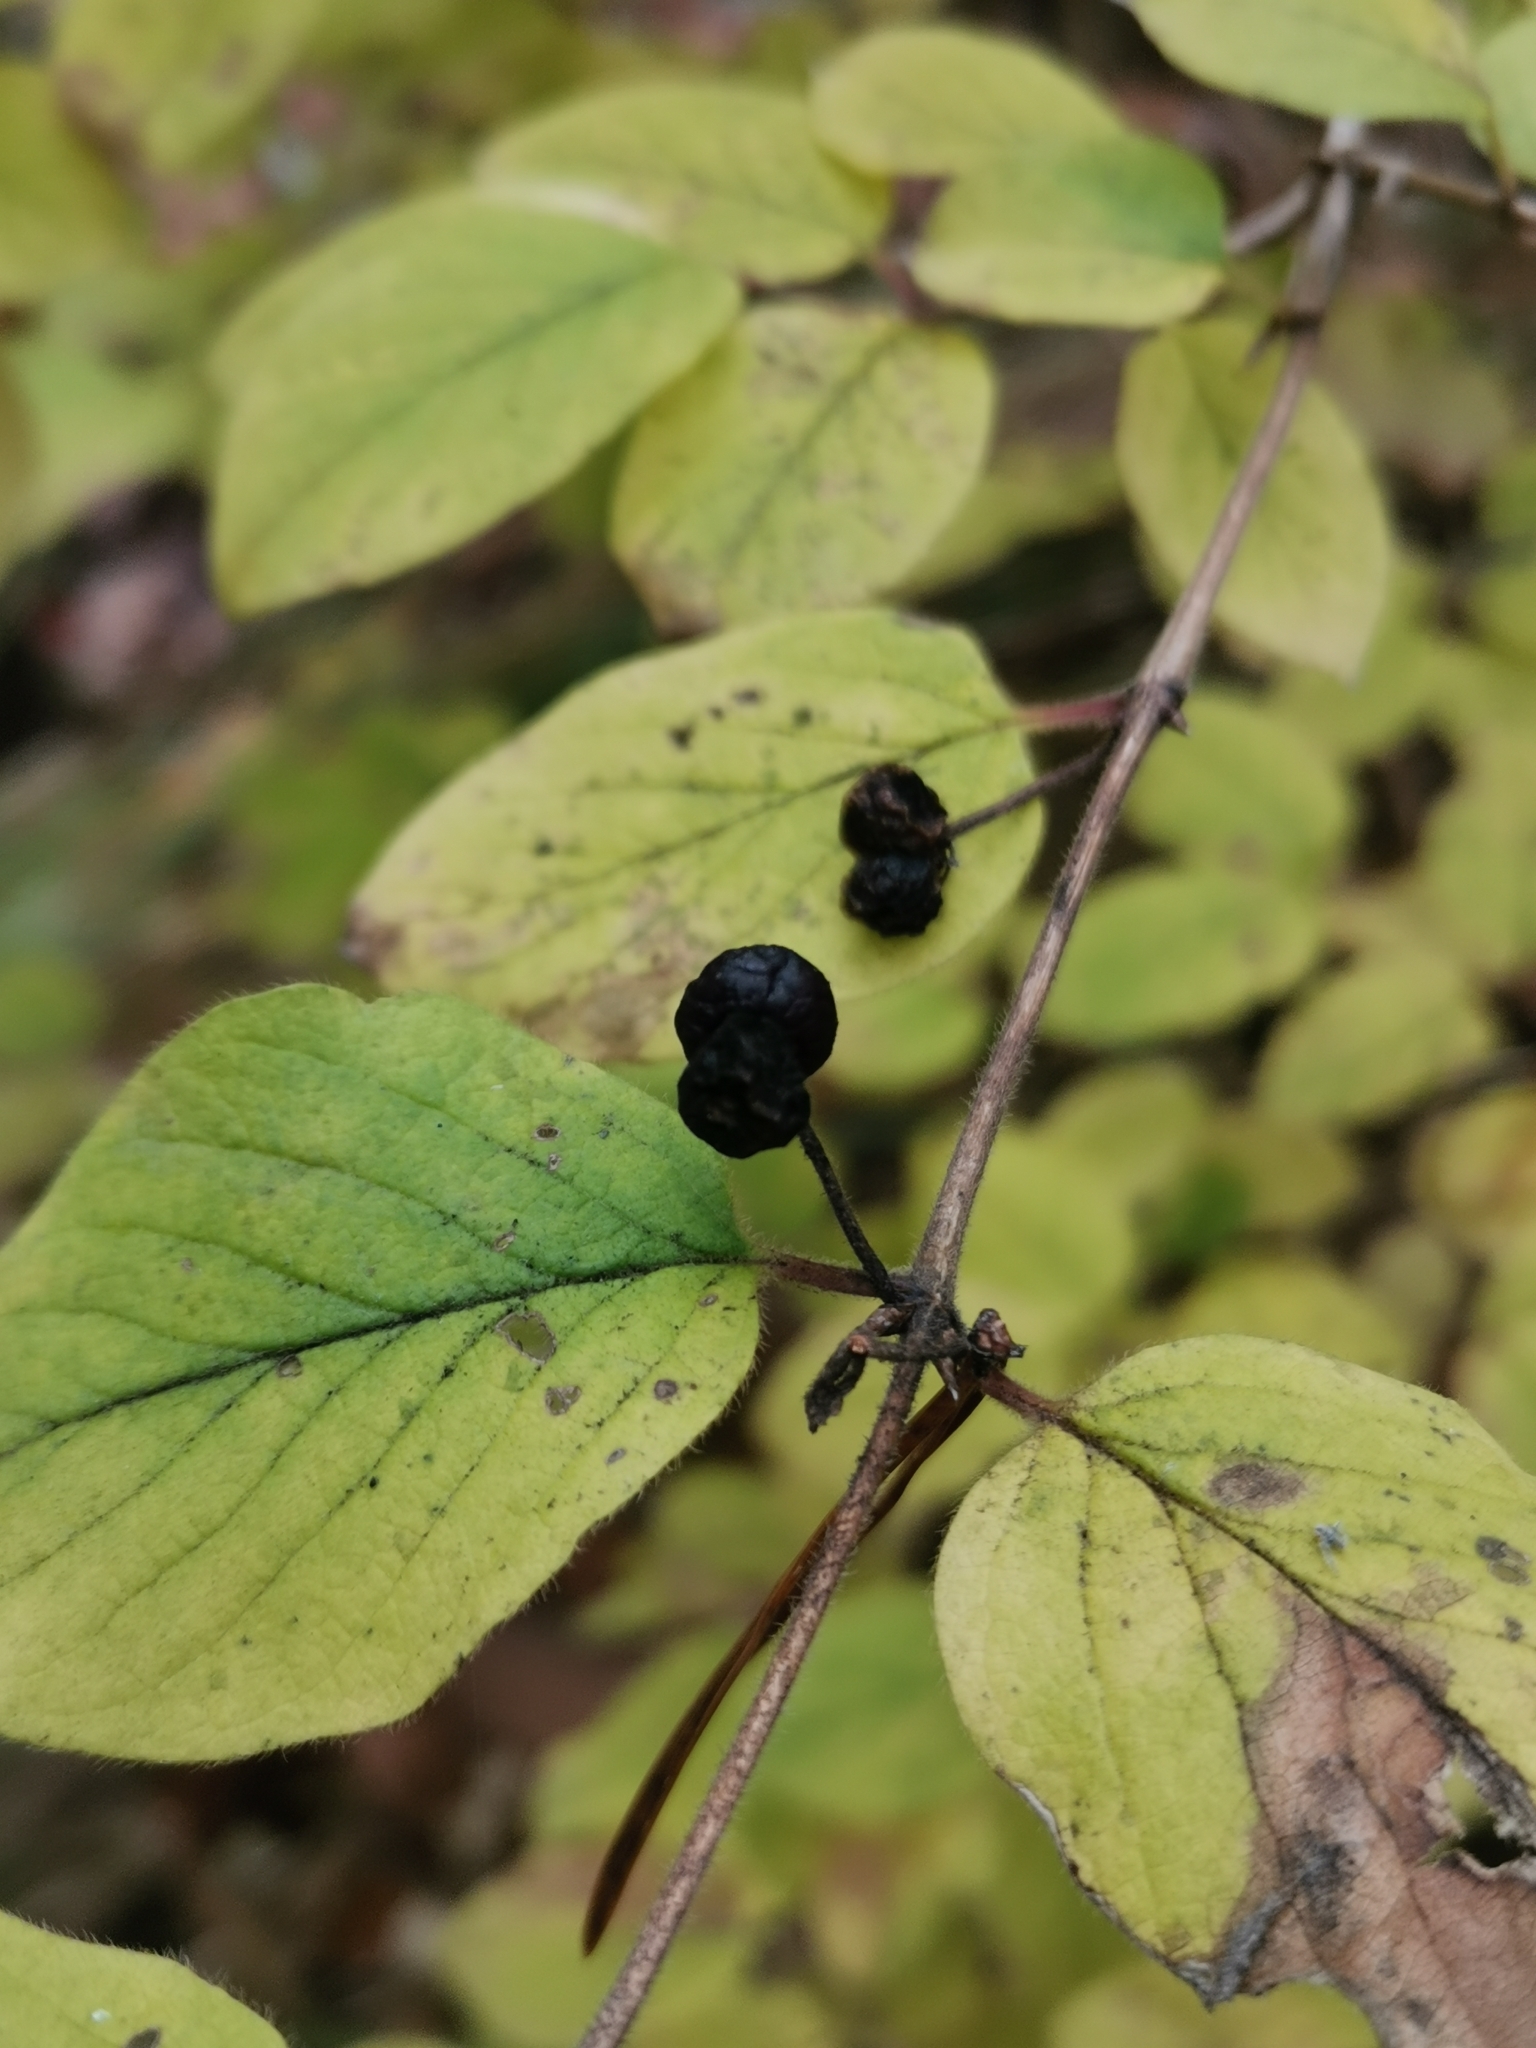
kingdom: Plantae
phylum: Tracheophyta
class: Magnoliopsida
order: Dipsacales
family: Caprifoliaceae
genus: Lonicera
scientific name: Lonicera xylosteum
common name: Fly honeysuckle
